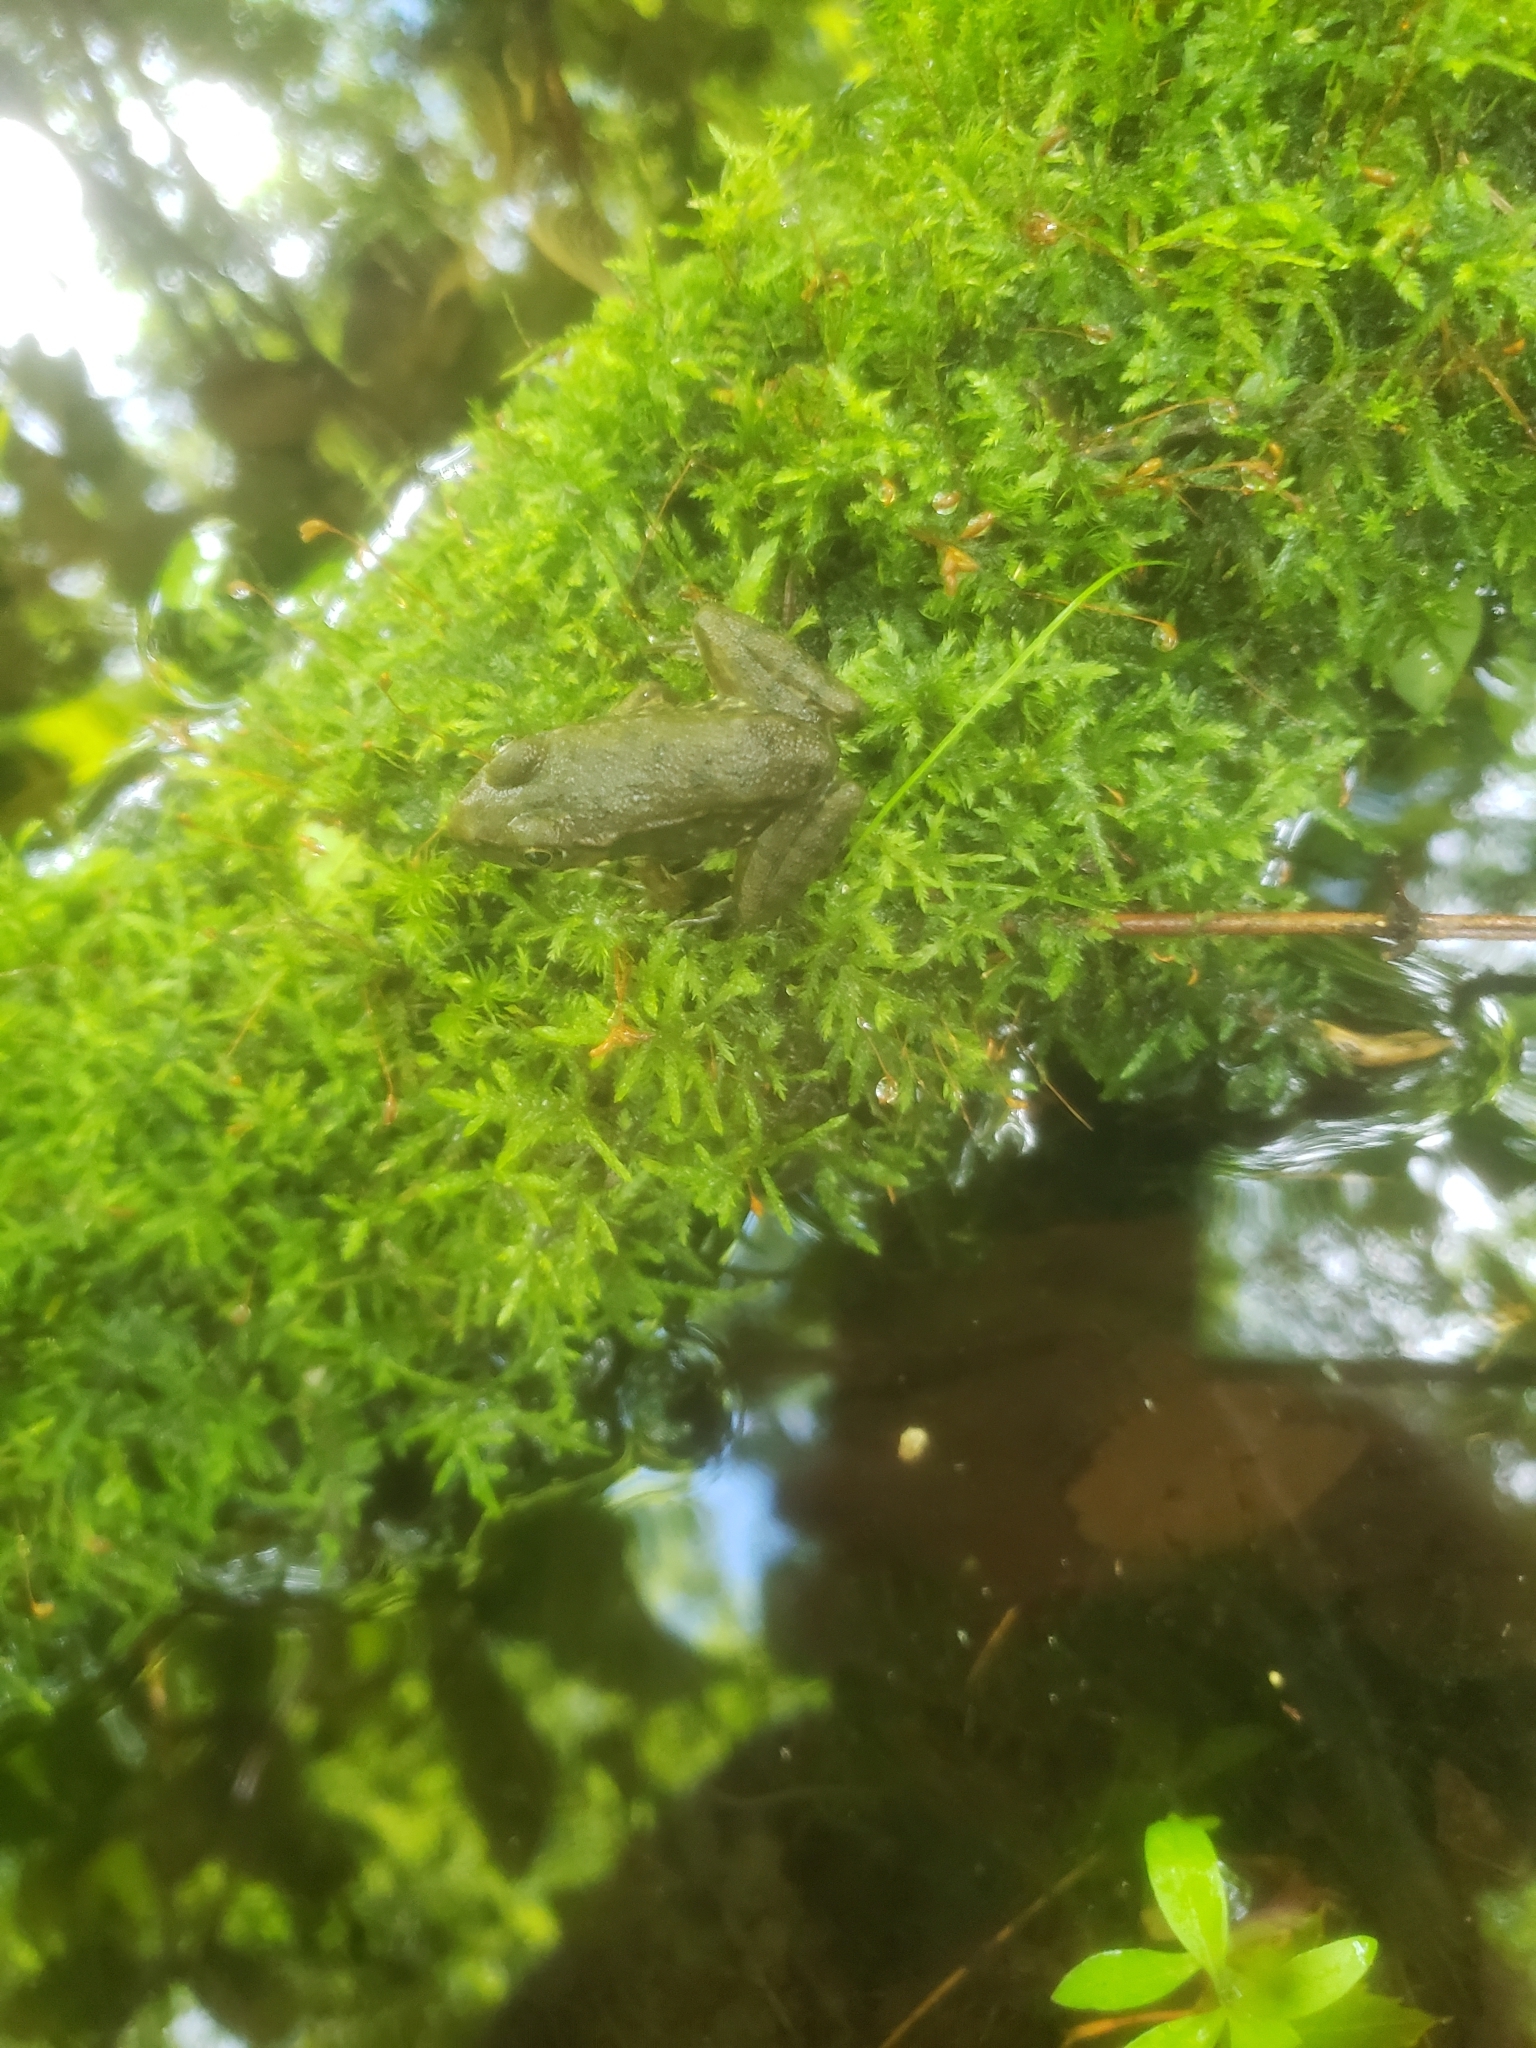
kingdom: Animalia
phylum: Chordata
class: Amphibia
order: Anura
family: Ranidae
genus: Lithobates
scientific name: Lithobates clamitans
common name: Green frog
